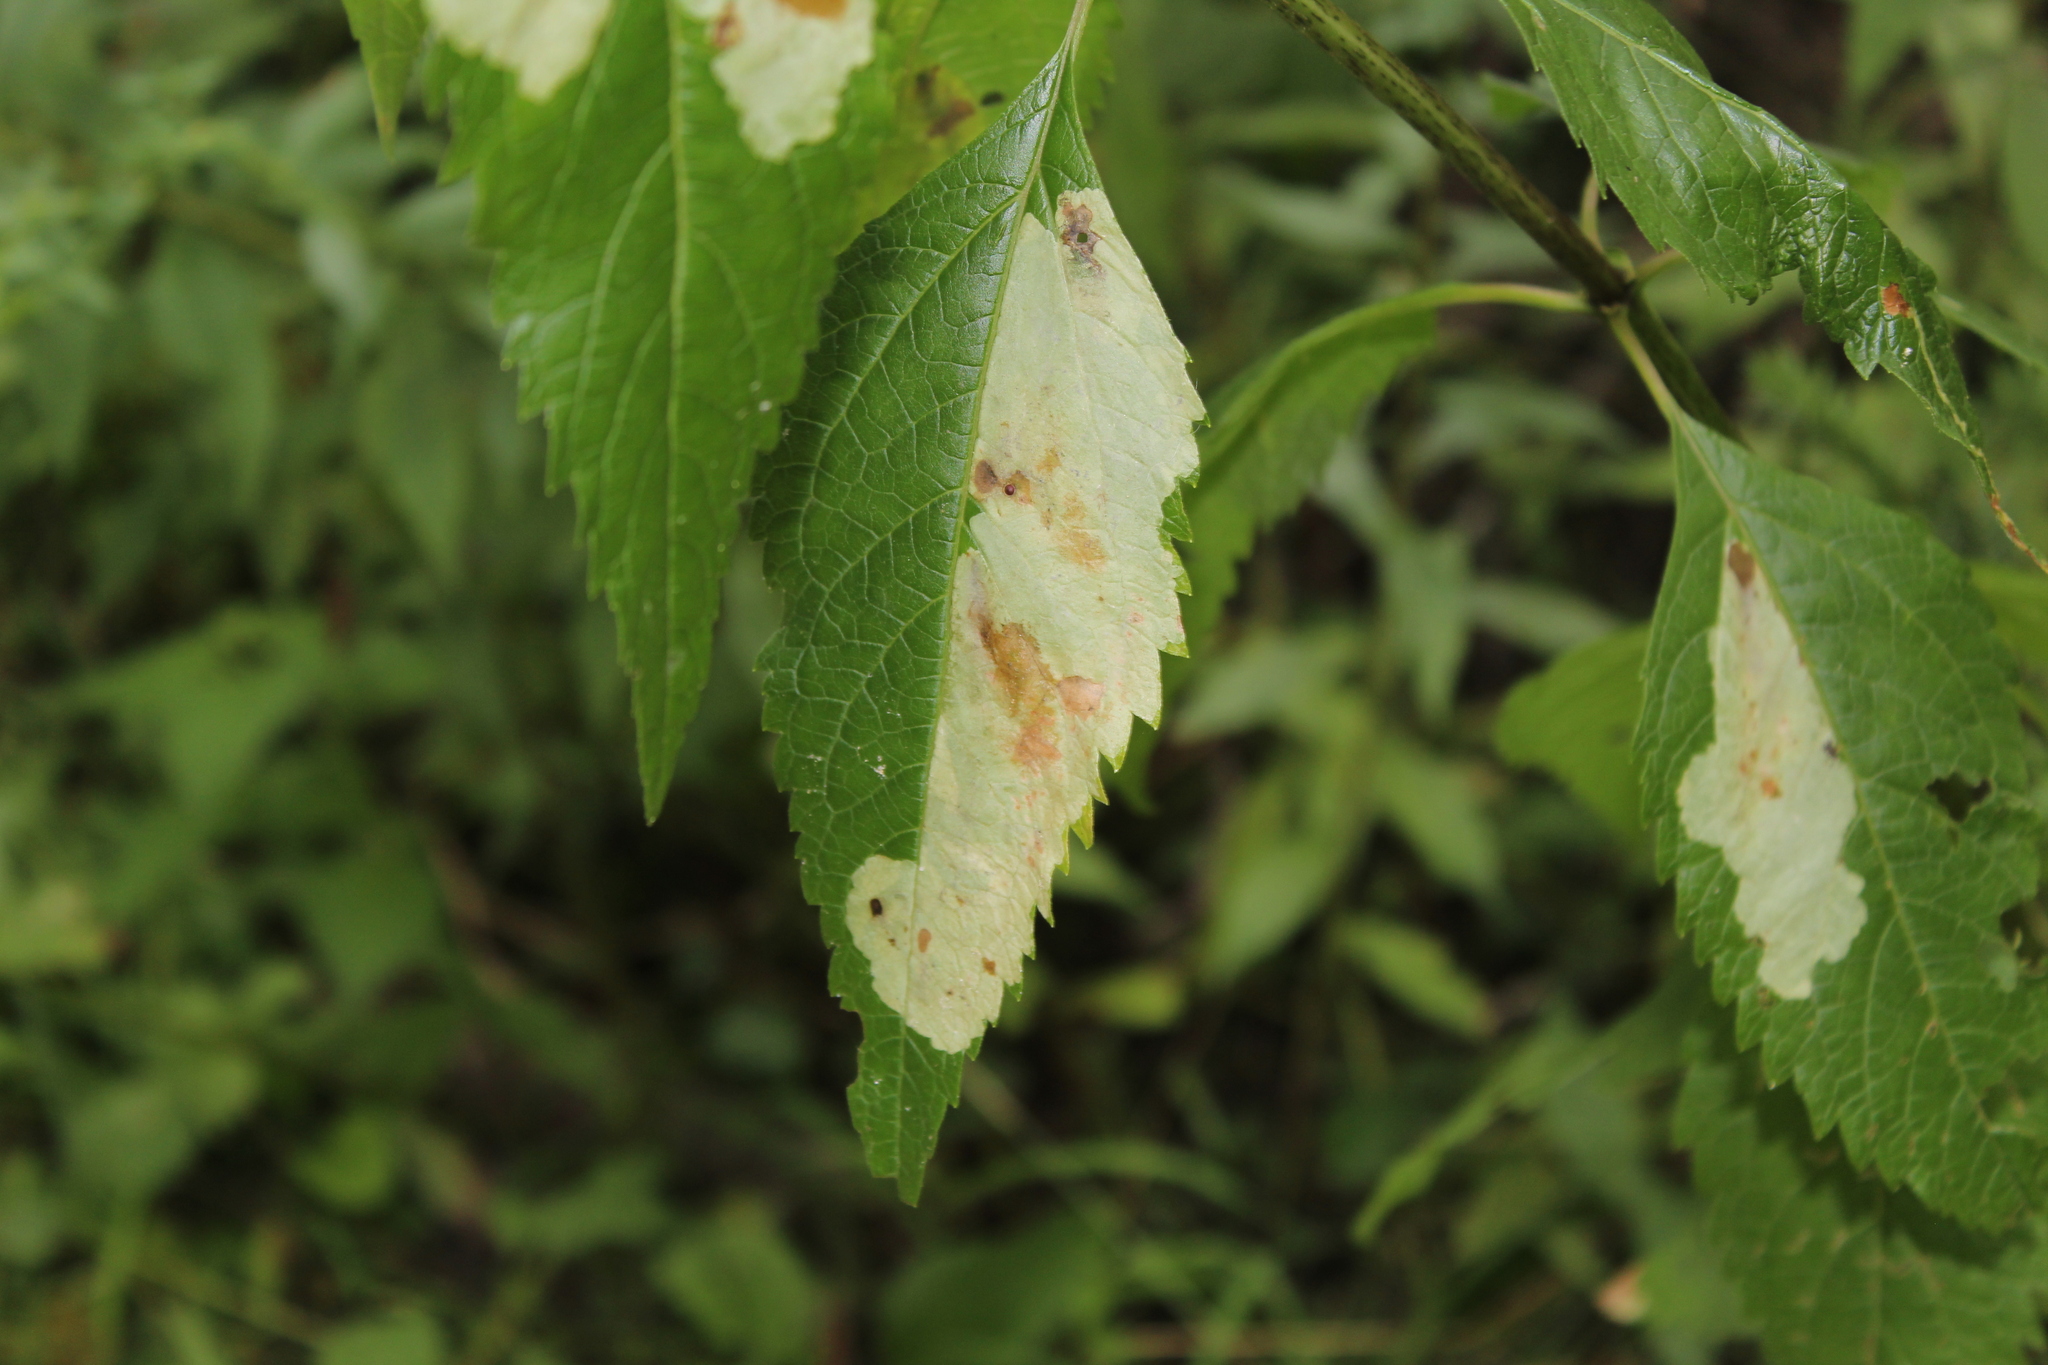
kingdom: Animalia
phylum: Arthropoda
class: Insecta
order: Diptera
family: Agromyzidae
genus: Calycomyza
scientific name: Calycomyza flavinotum
